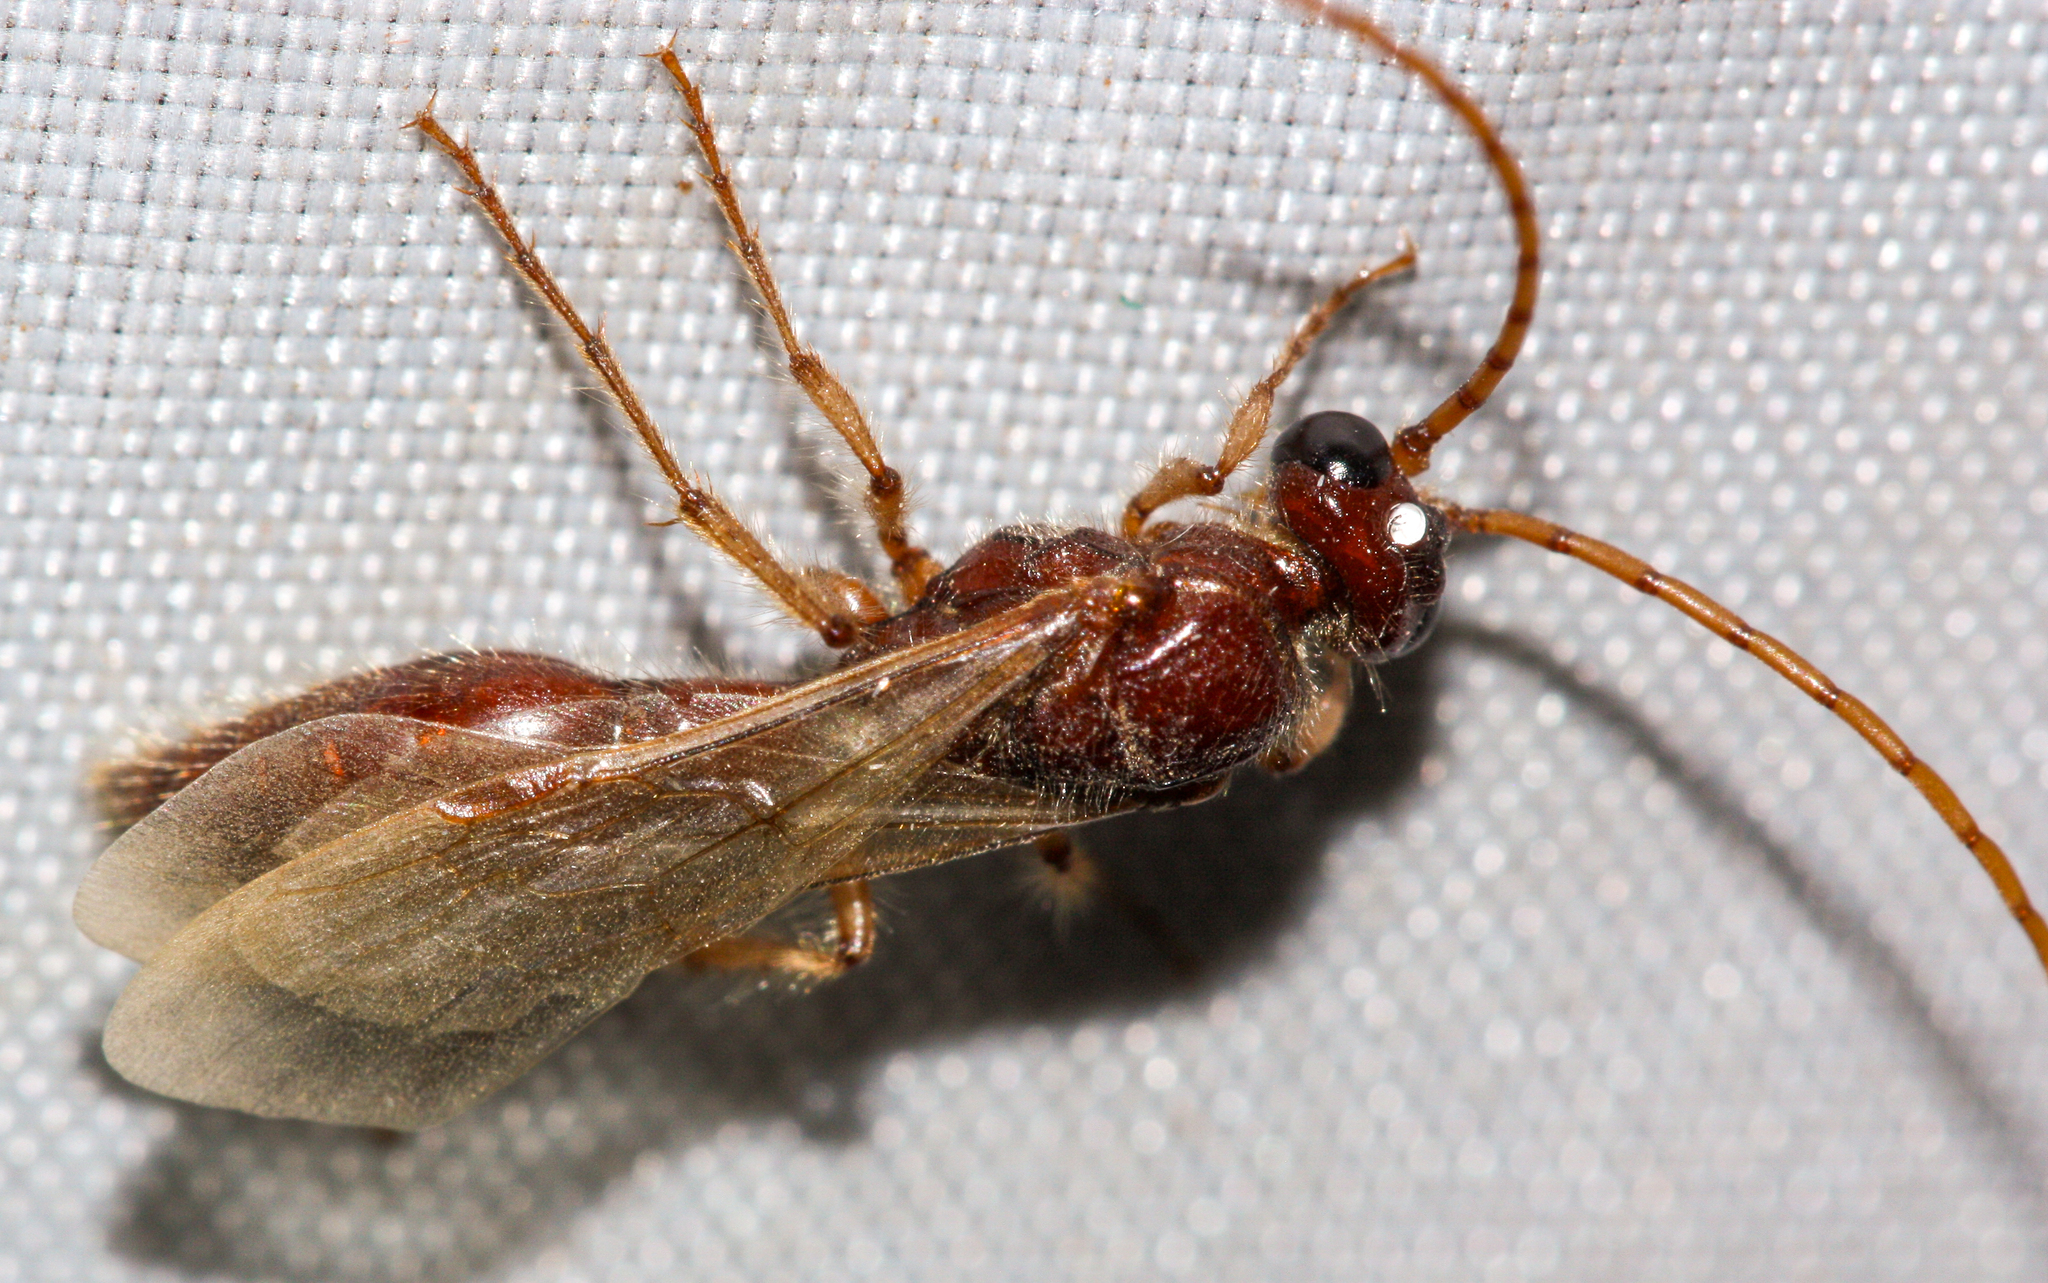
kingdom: Animalia
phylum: Arthropoda
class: Insecta
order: Hymenoptera
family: Tiphiidae
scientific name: Tiphiidae
